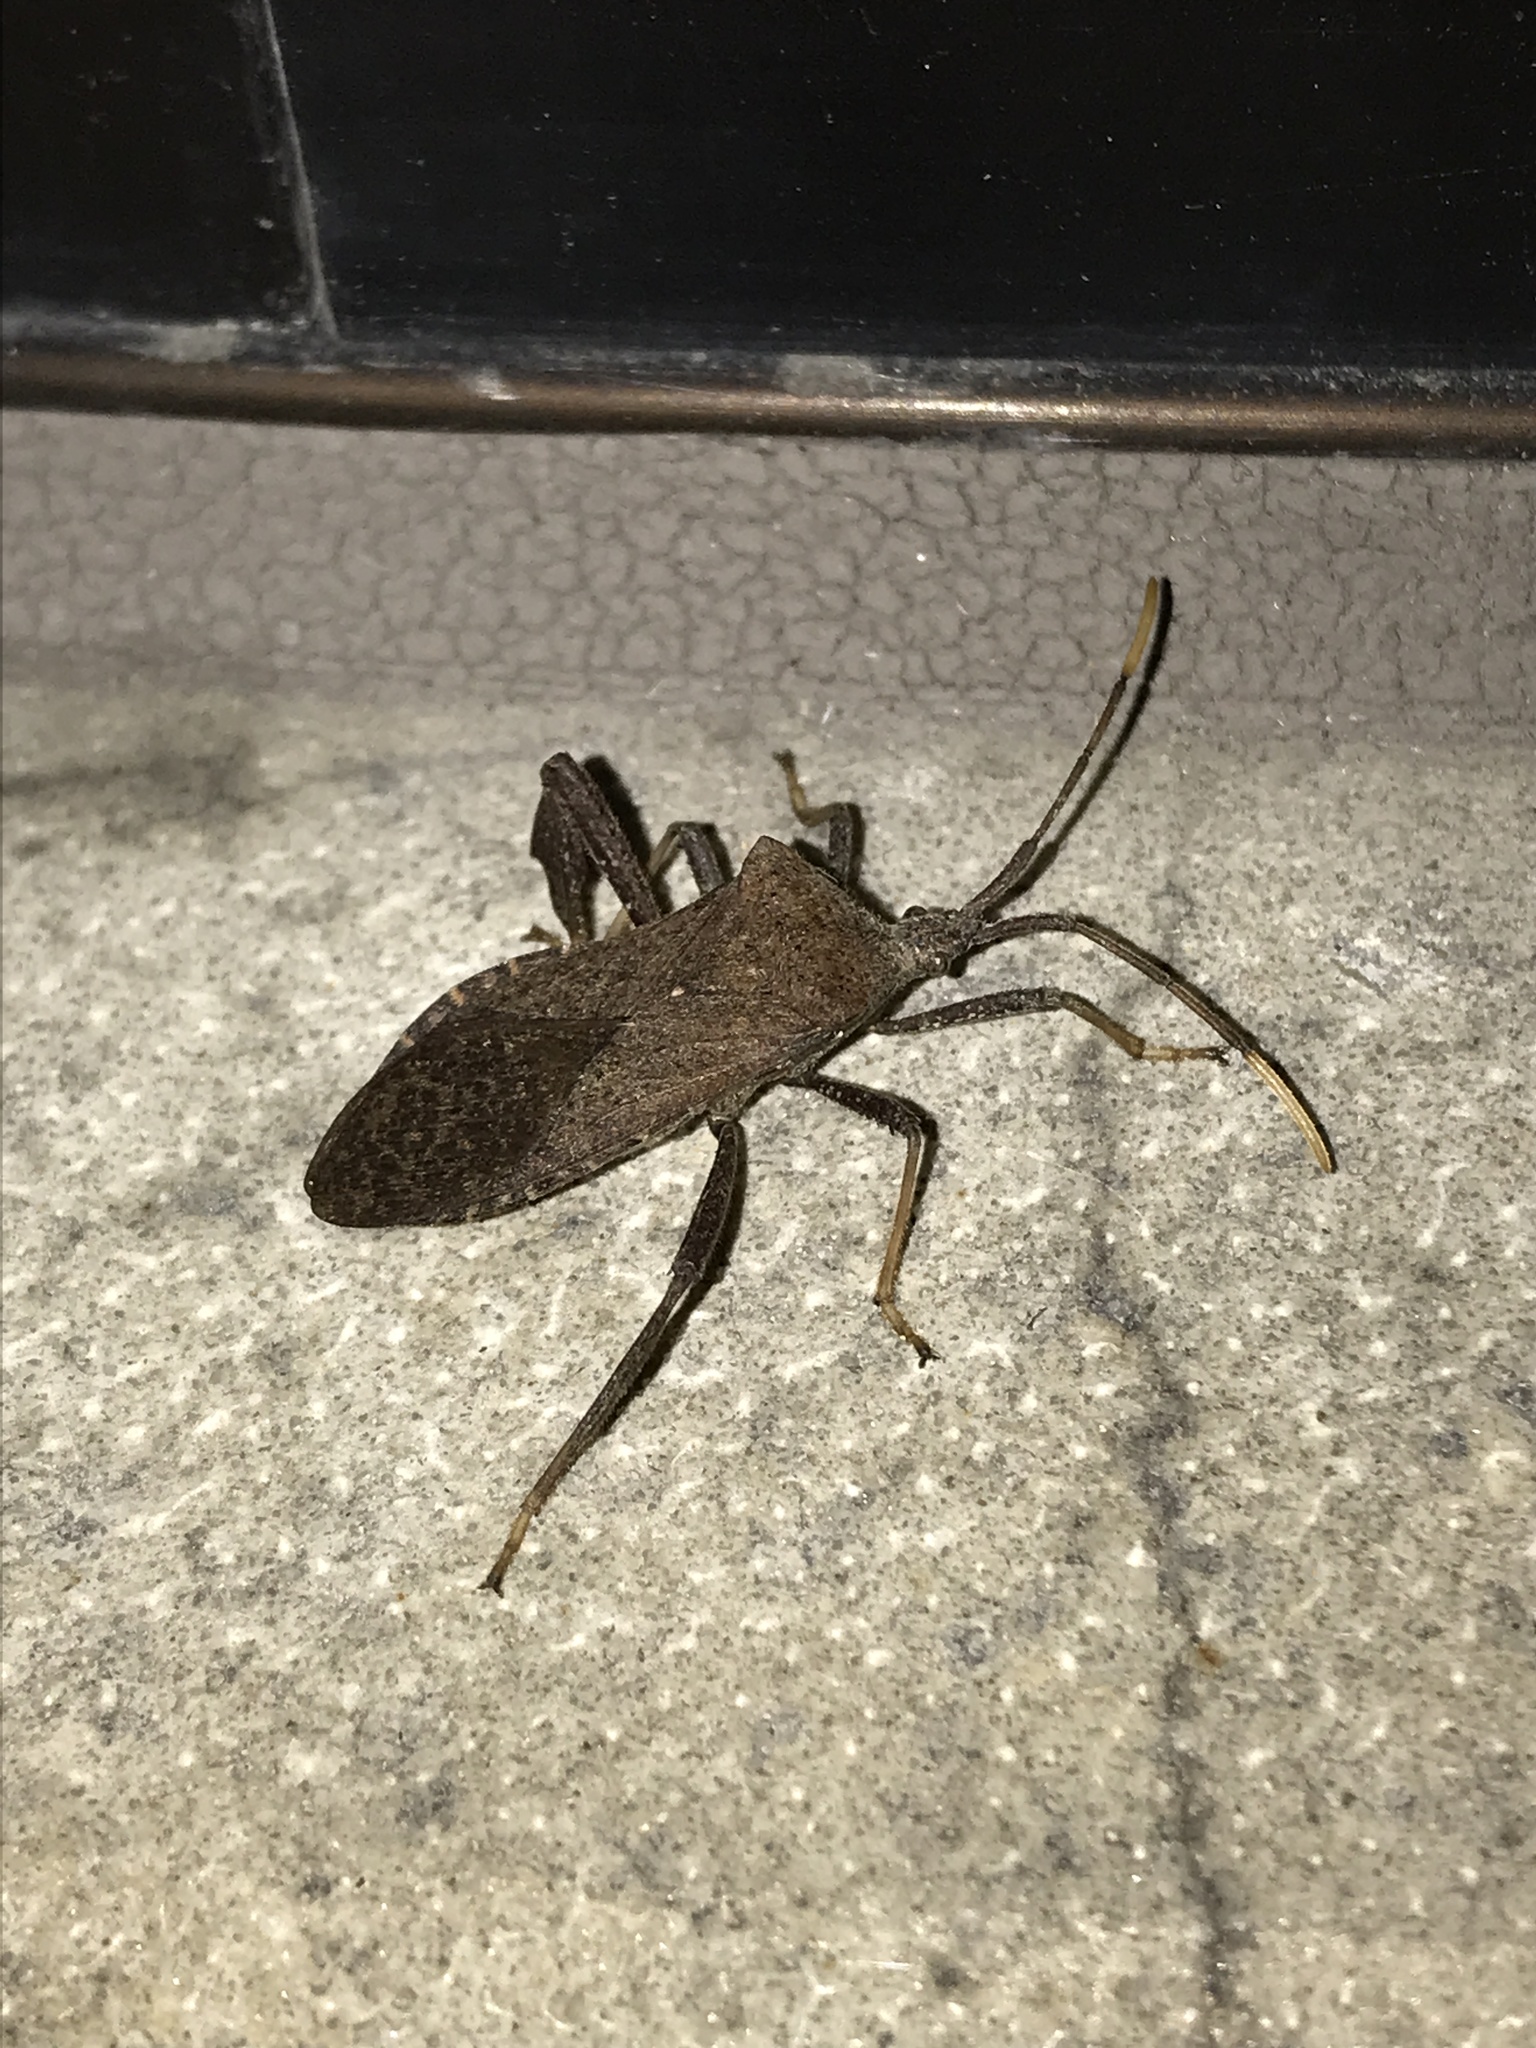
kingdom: Animalia
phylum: Arthropoda
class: Insecta
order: Hemiptera
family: Coreidae
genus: Acanthocephala
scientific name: Acanthocephala terminalis
